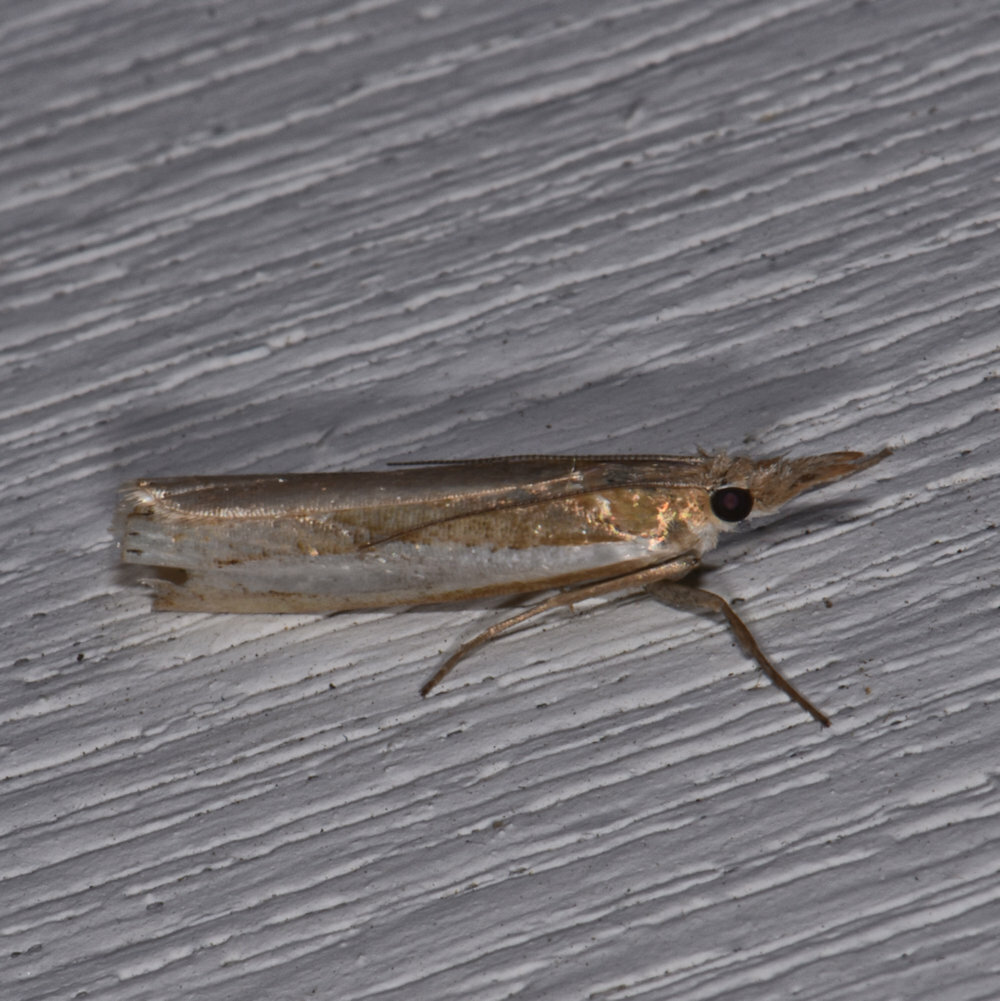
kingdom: Animalia
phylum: Arthropoda
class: Insecta
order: Lepidoptera
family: Crambidae
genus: Crambus
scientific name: Crambus praefectellus
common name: Common grass-veneer
